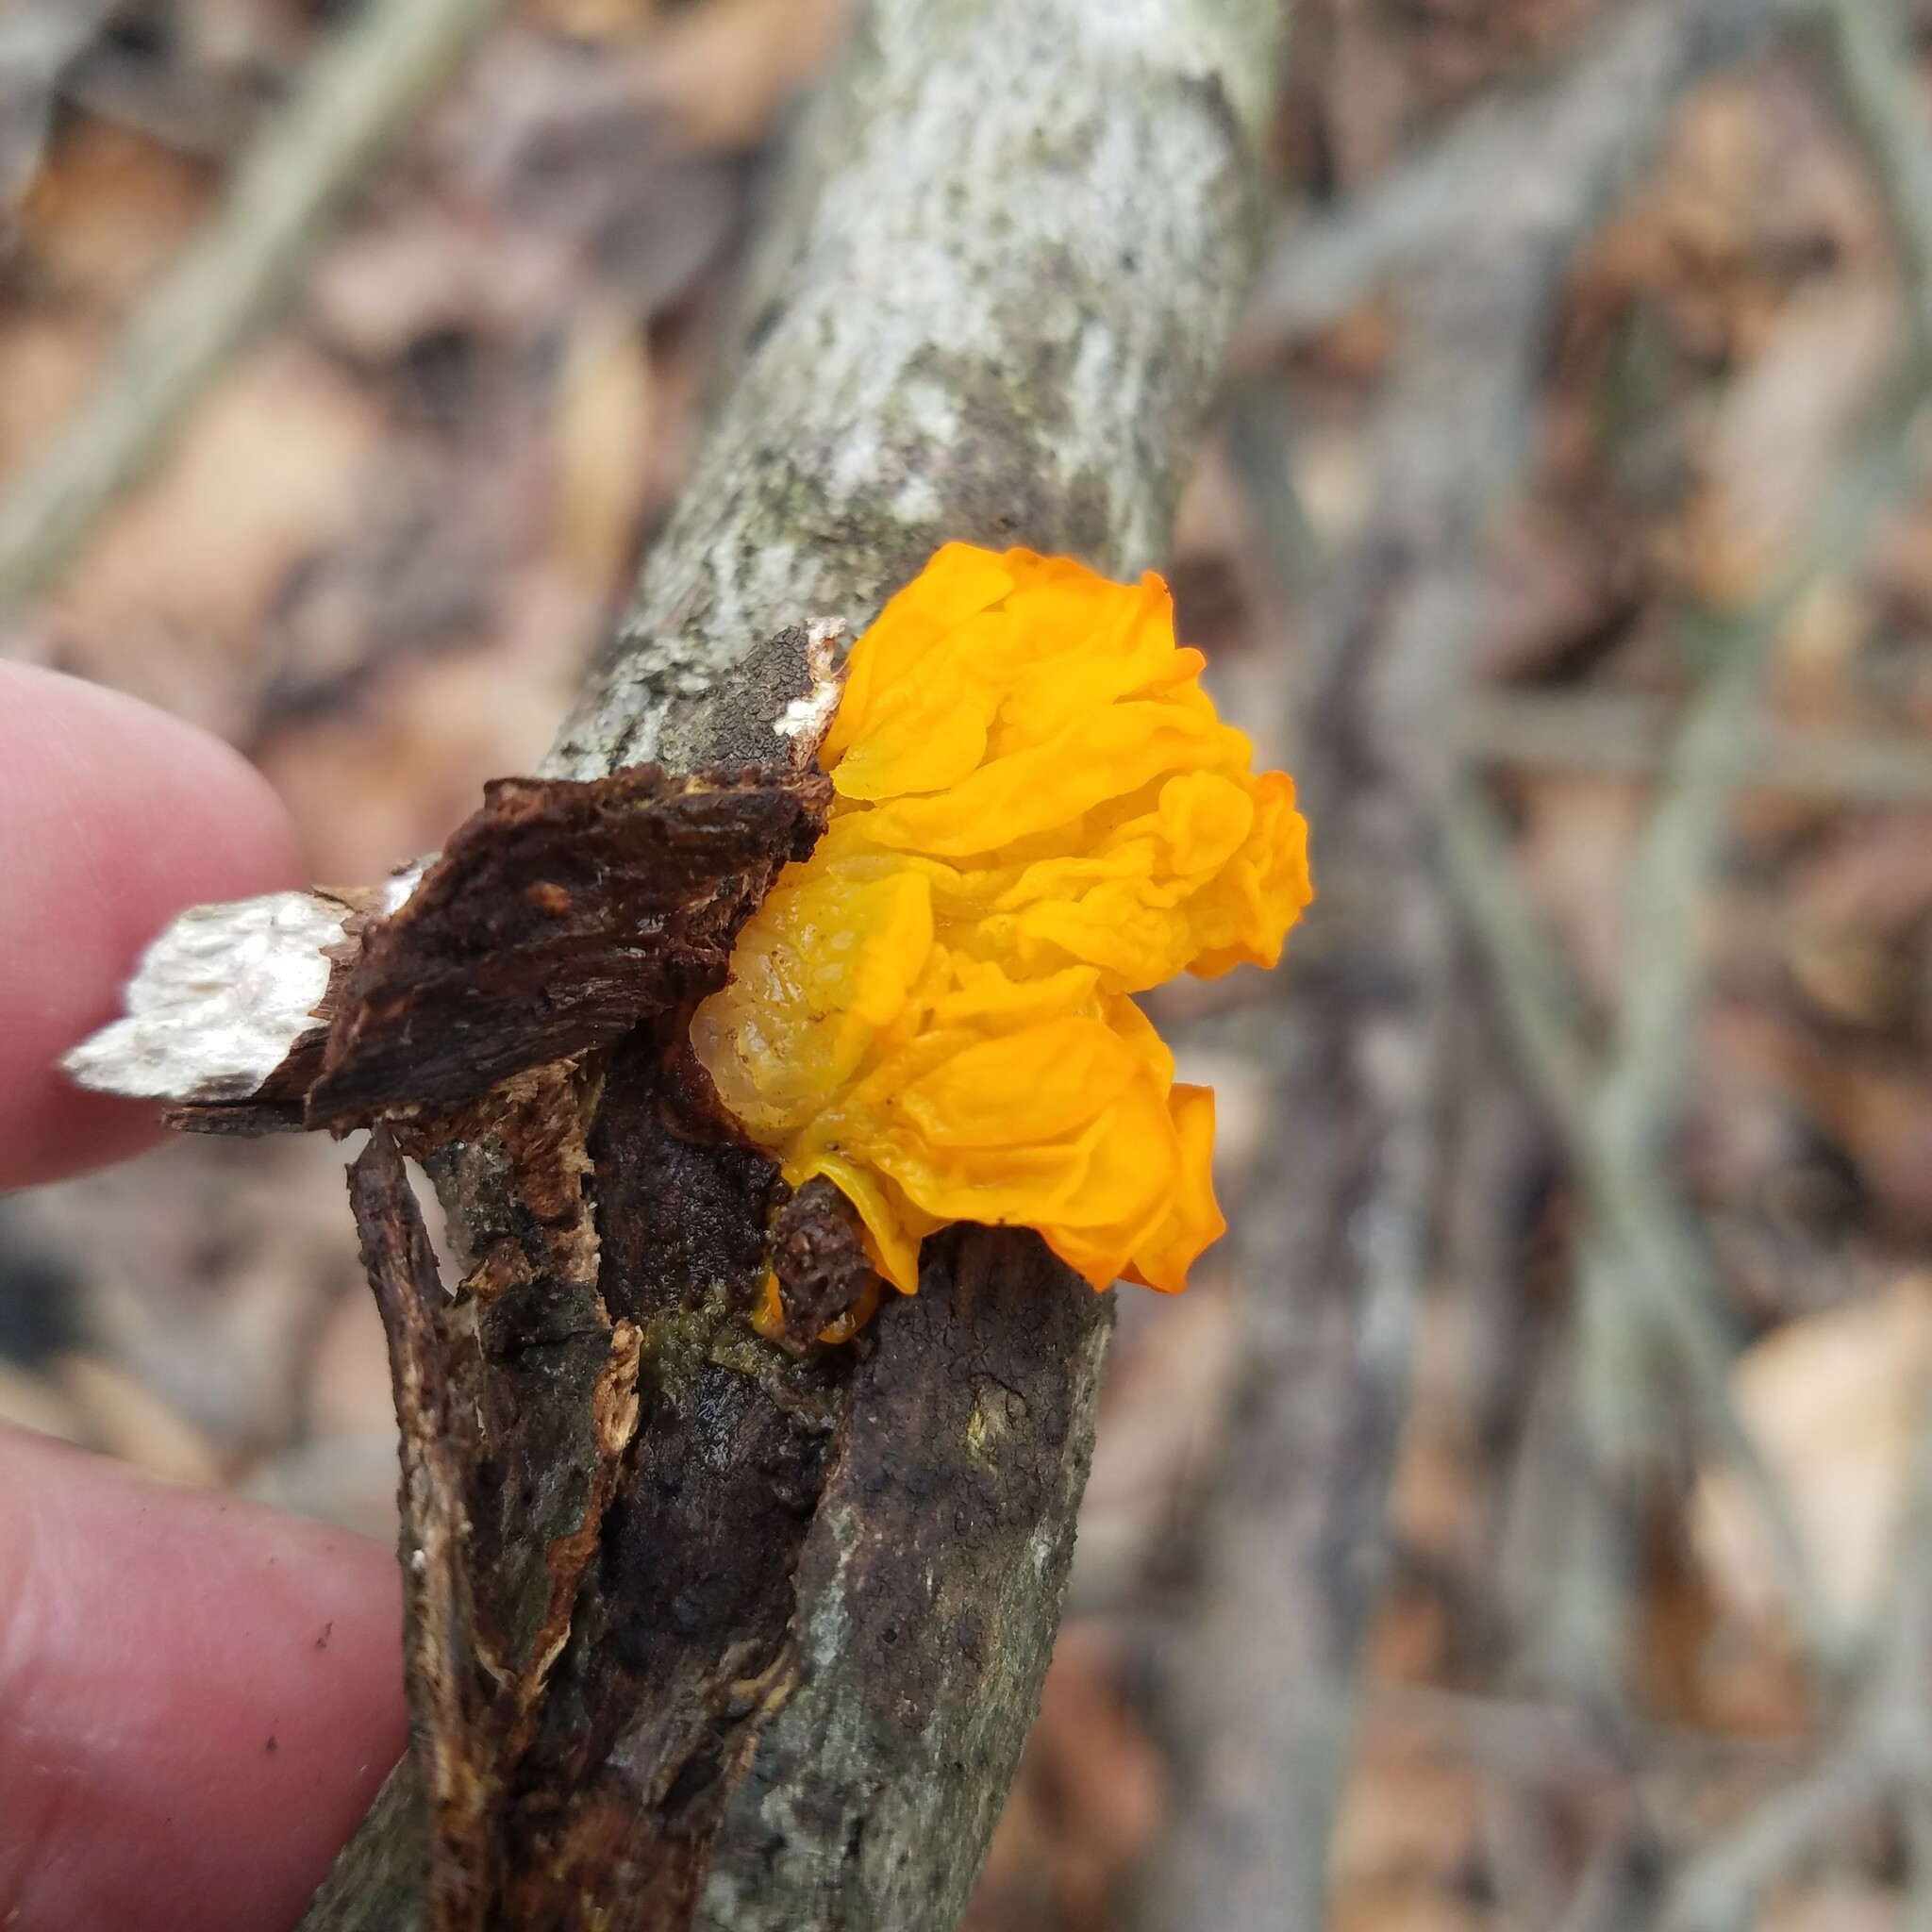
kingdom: Fungi
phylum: Basidiomycota
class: Tremellomycetes
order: Tremellales
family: Tremellaceae
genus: Tremella
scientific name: Tremella mesenterica
